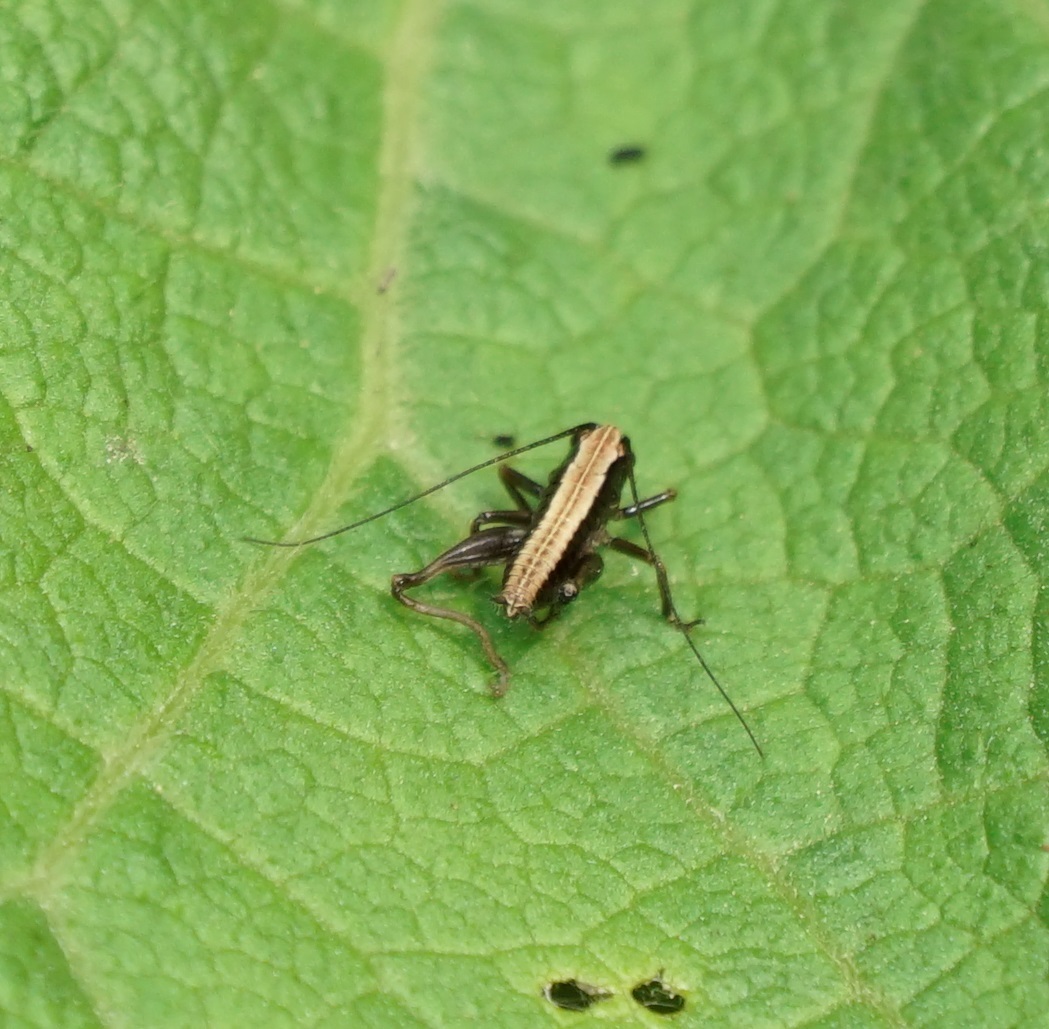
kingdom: Animalia
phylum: Arthropoda
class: Insecta
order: Orthoptera
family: Tettigoniidae
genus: Pholidoptera
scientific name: Pholidoptera griseoaptera
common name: Dark bush-cricket
